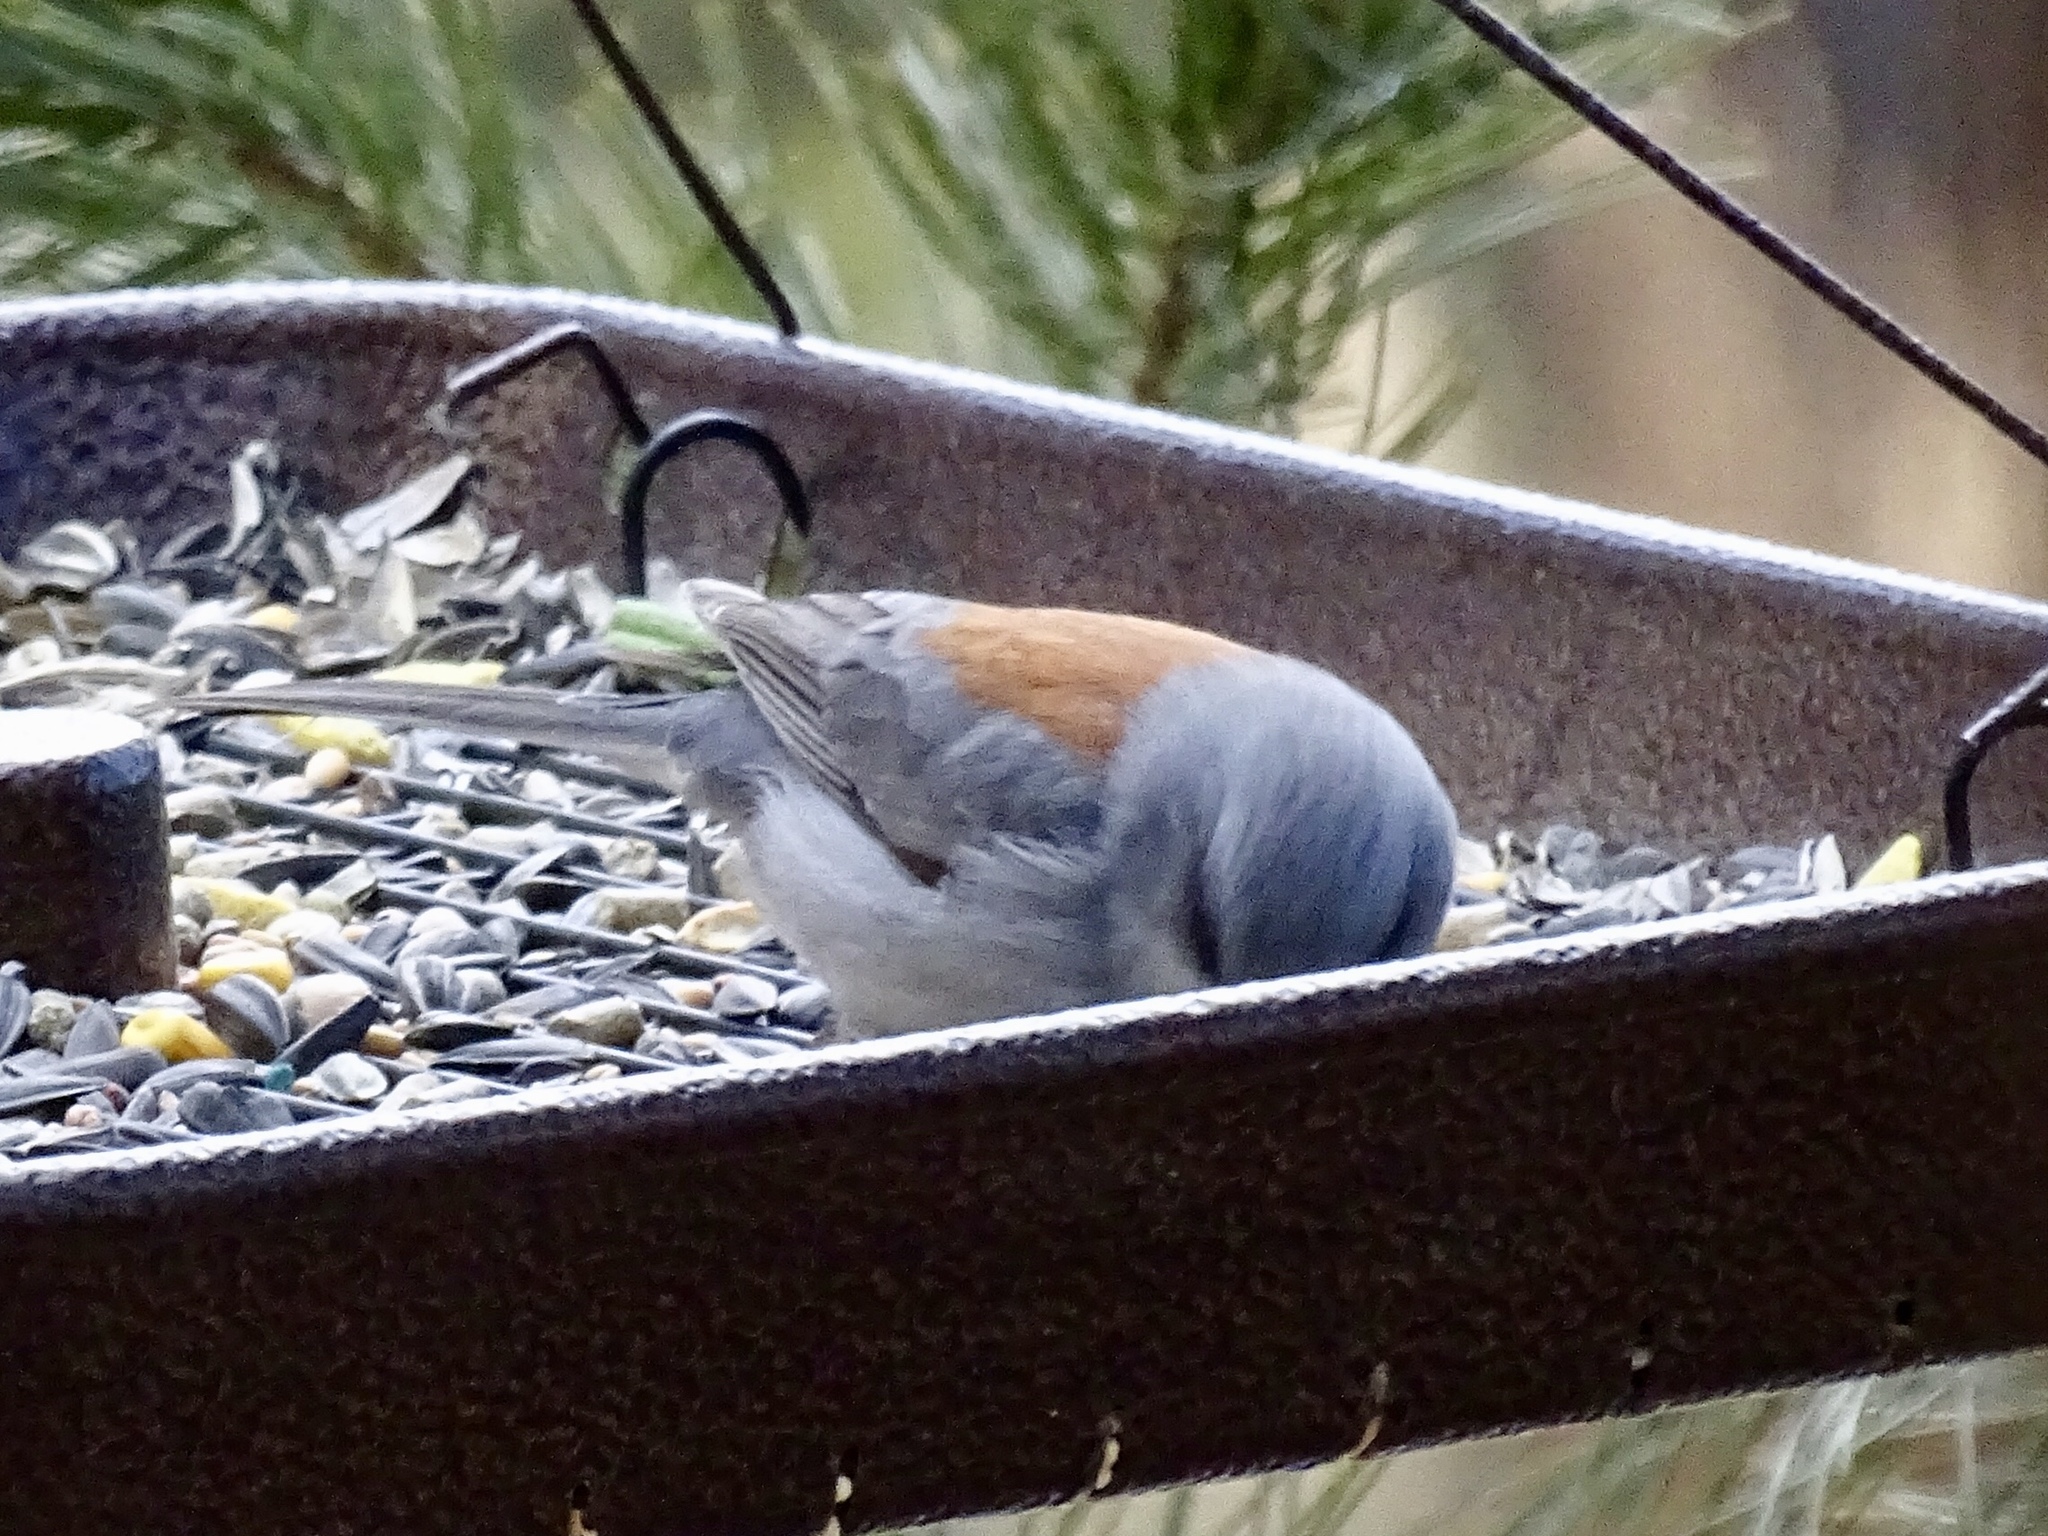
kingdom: Animalia
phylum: Chordata
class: Aves
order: Passeriformes
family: Passerellidae
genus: Junco
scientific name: Junco hyemalis
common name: Dark-eyed junco
